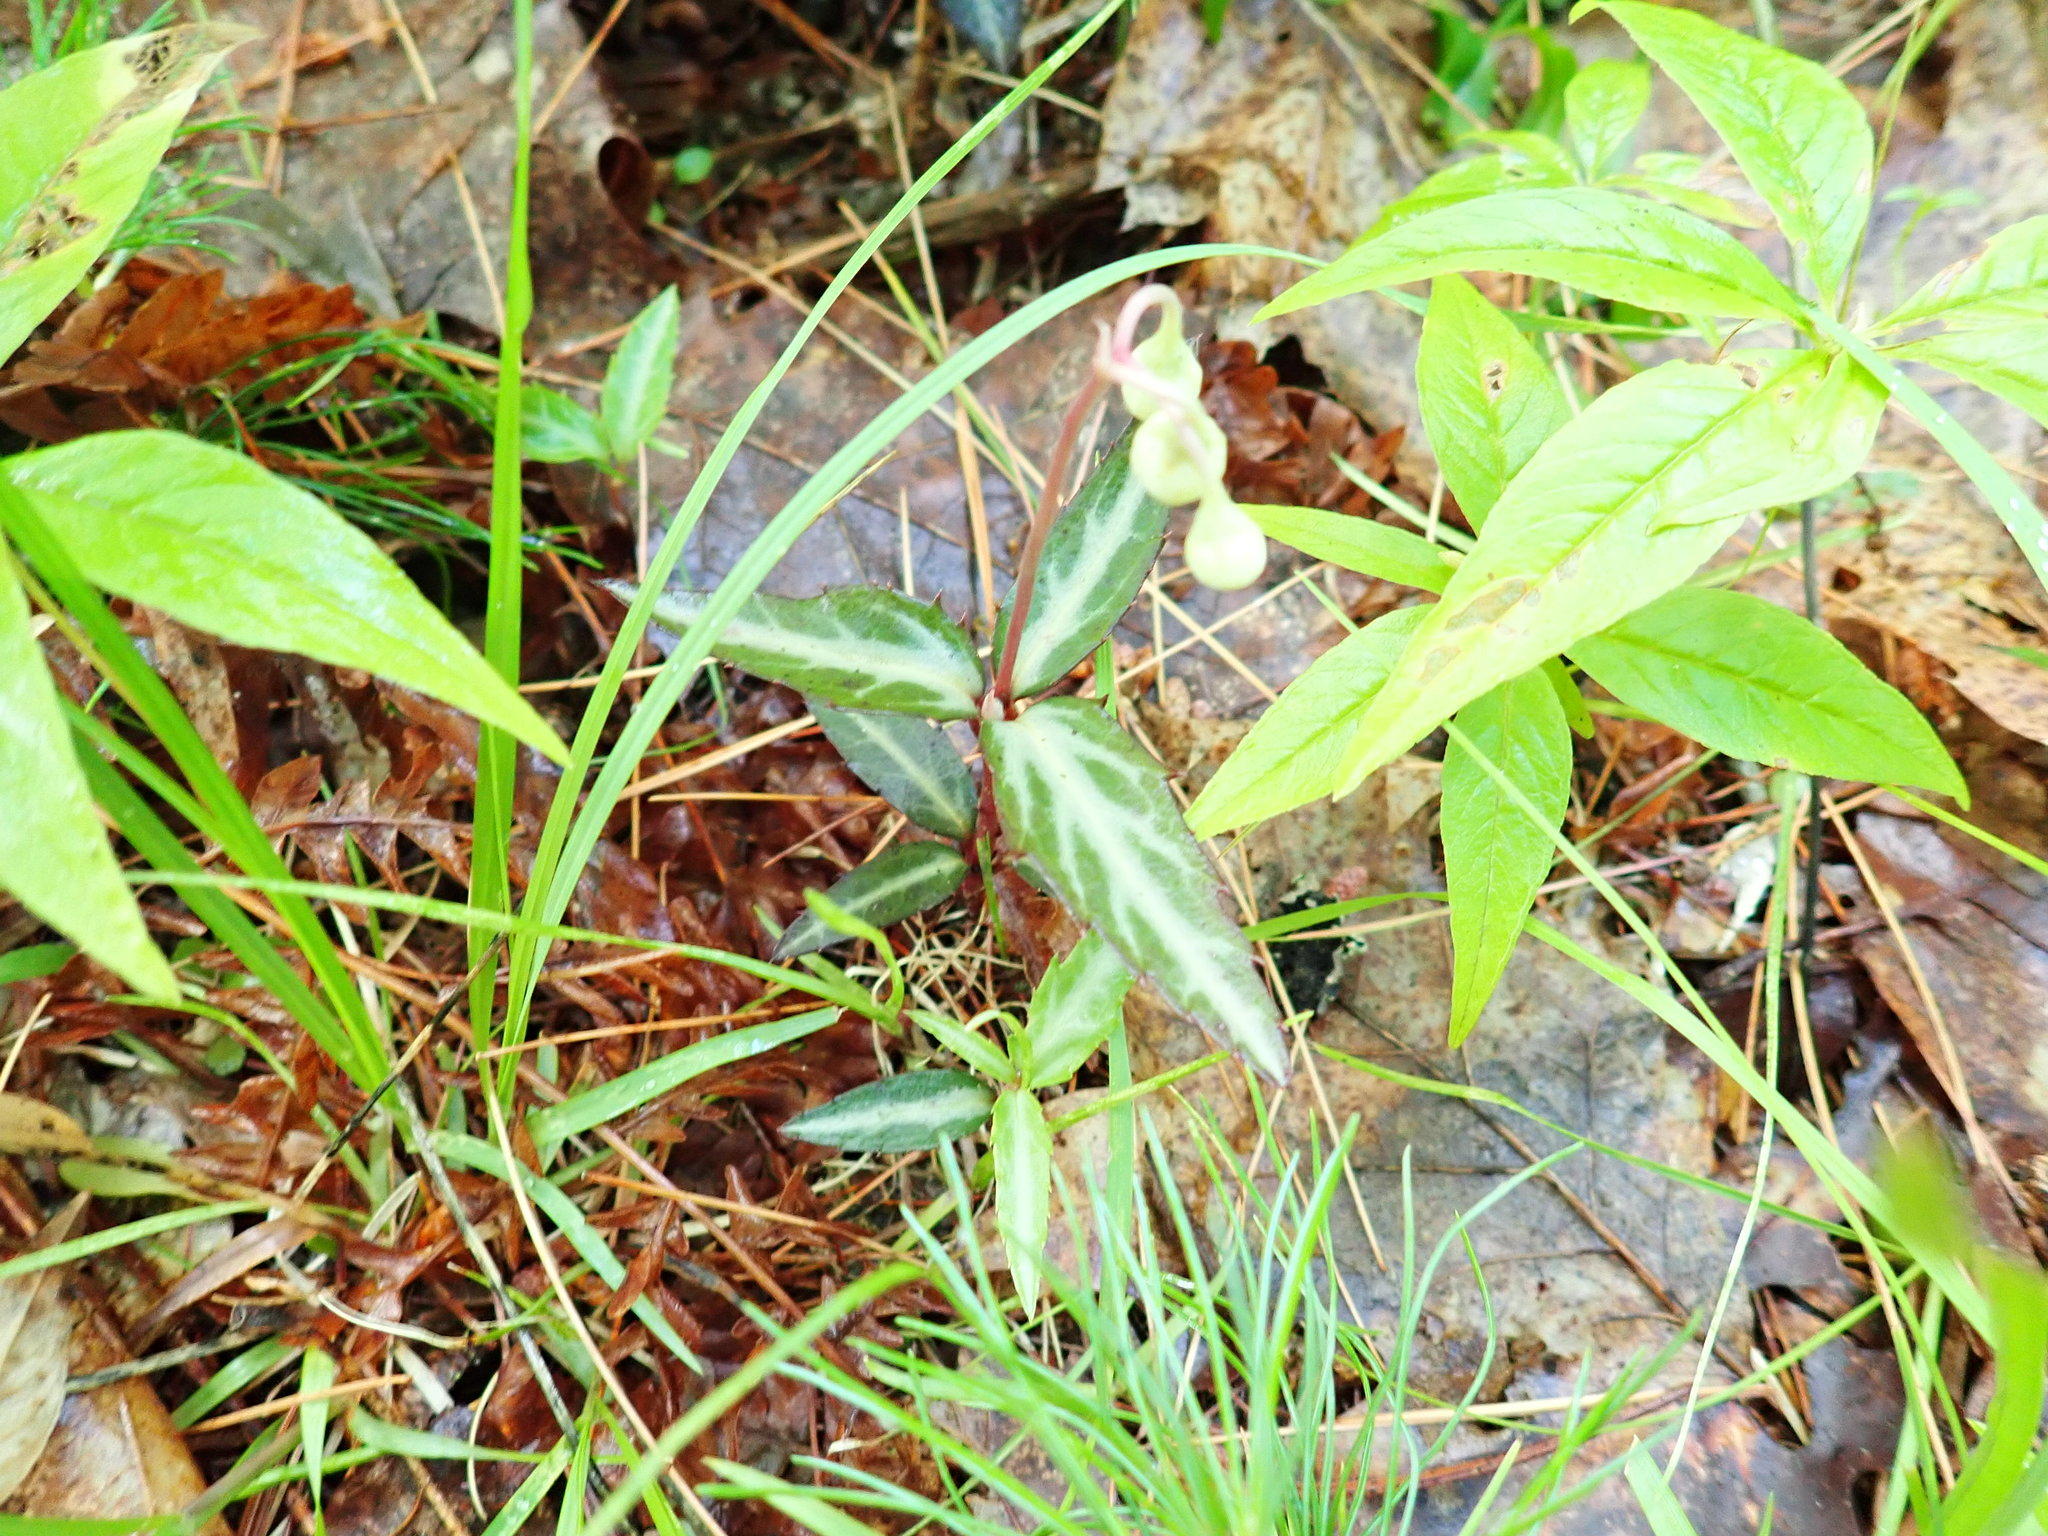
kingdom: Plantae
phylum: Tracheophyta
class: Magnoliopsida
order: Ericales
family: Ericaceae
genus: Chimaphila
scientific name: Chimaphila maculata
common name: Spotted pipsissewa
